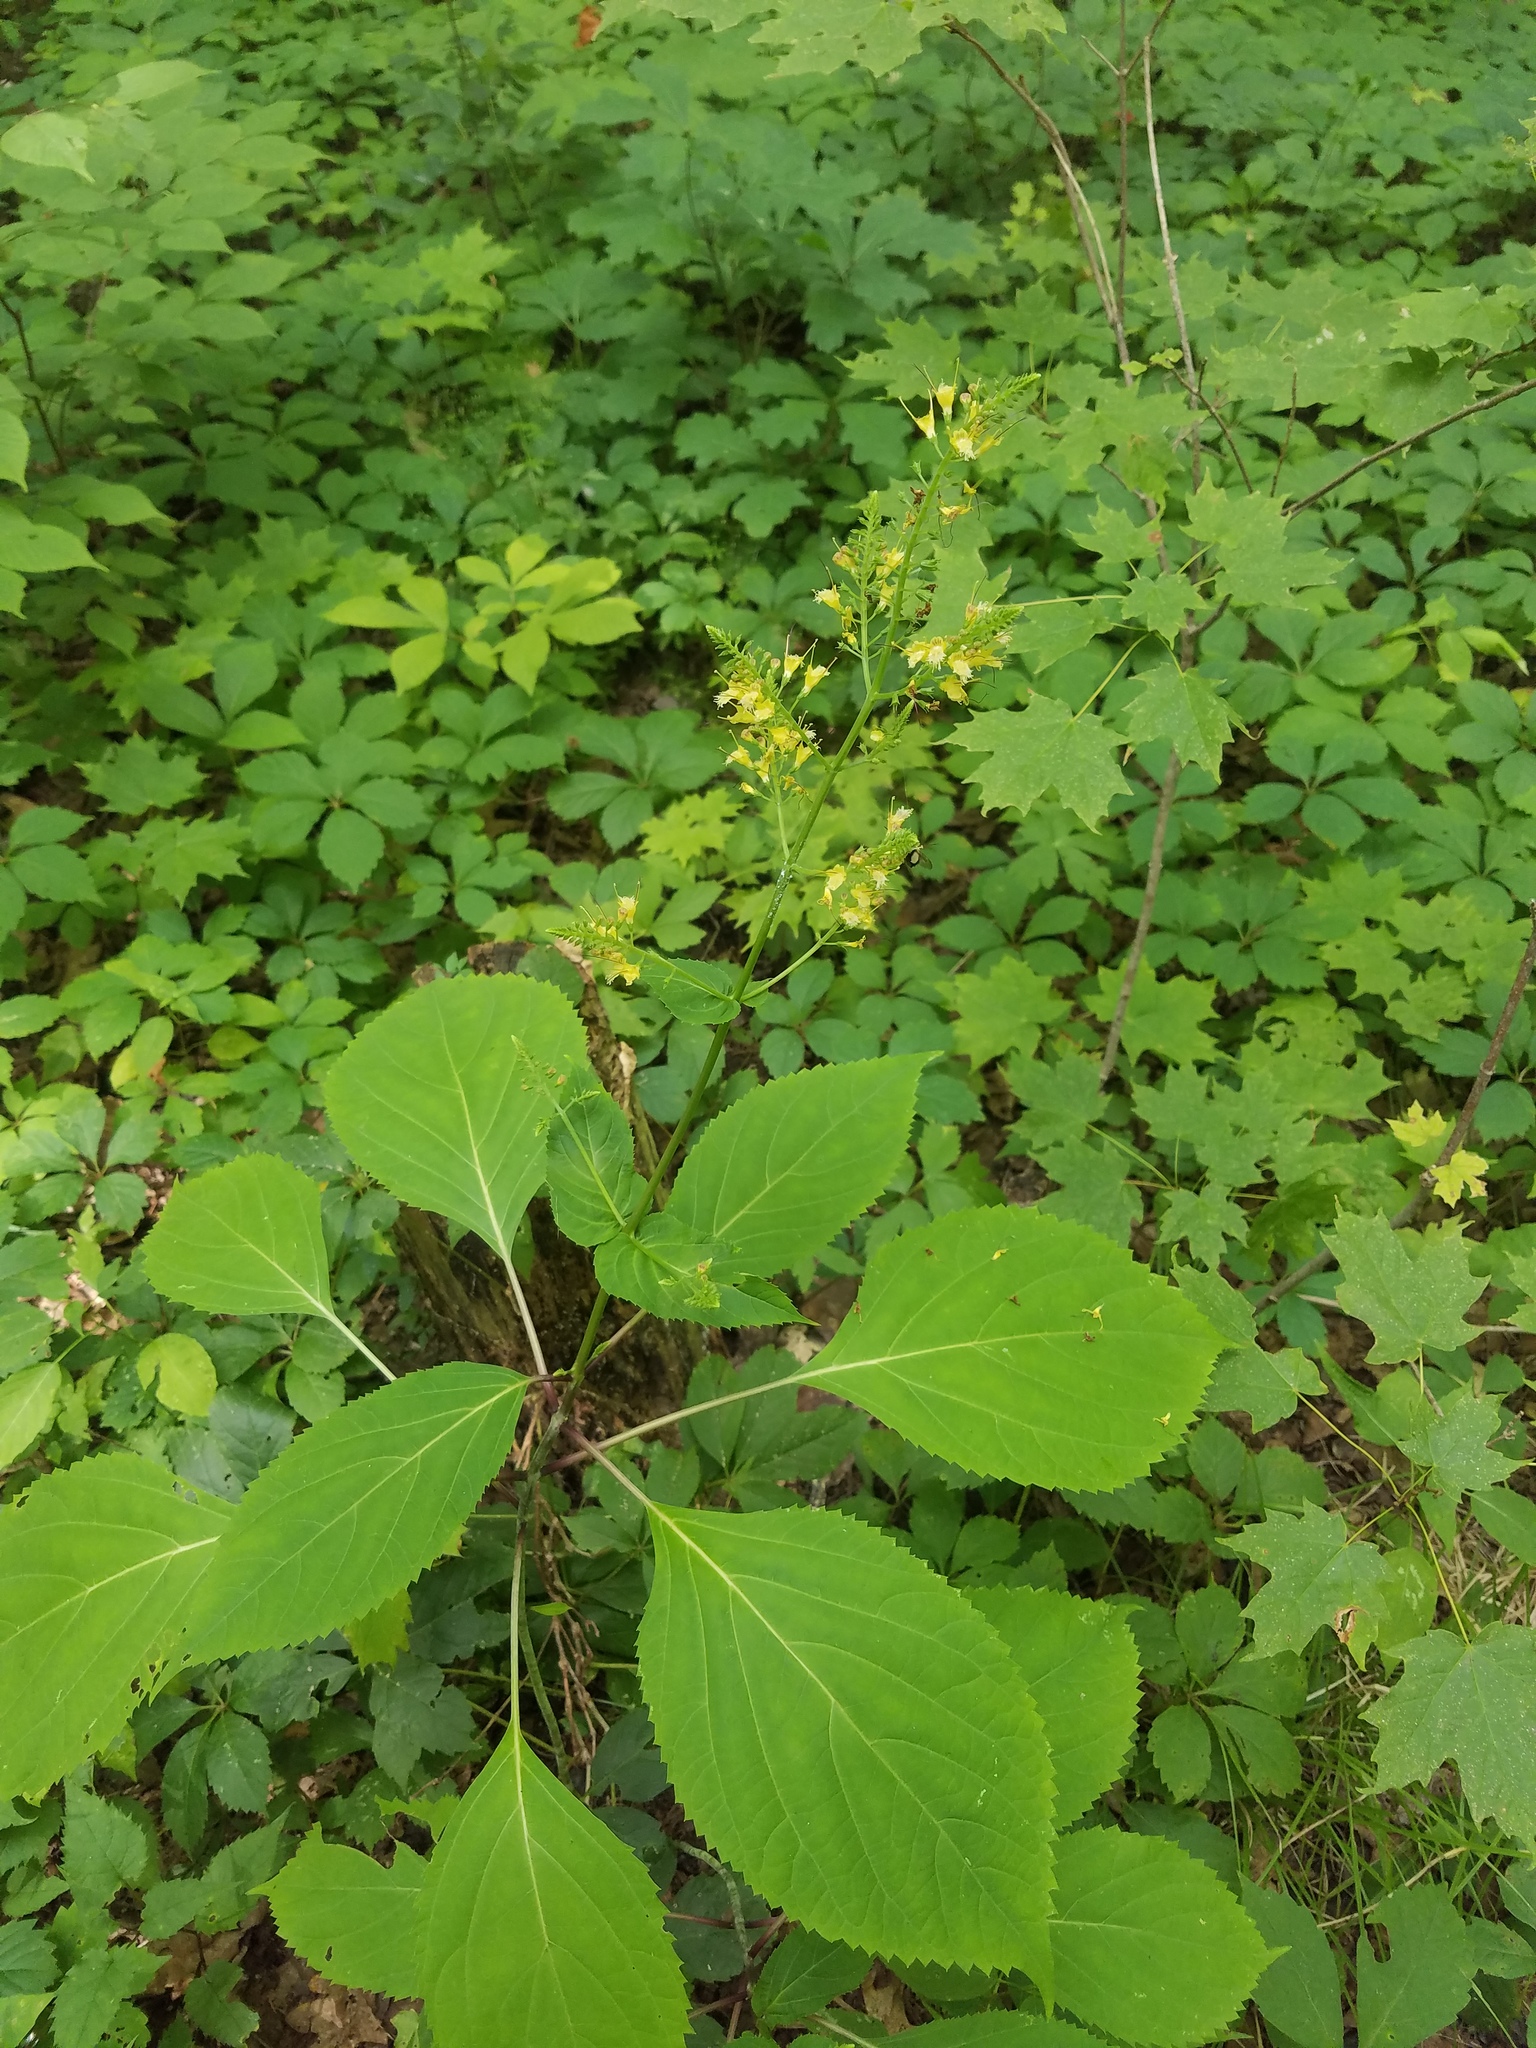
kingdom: Plantae
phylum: Tracheophyta
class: Magnoliopsida
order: Lamiales
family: Lamiaceae
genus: Collinsonia
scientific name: Collinsonia canadensis
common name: Northern horsebalm
